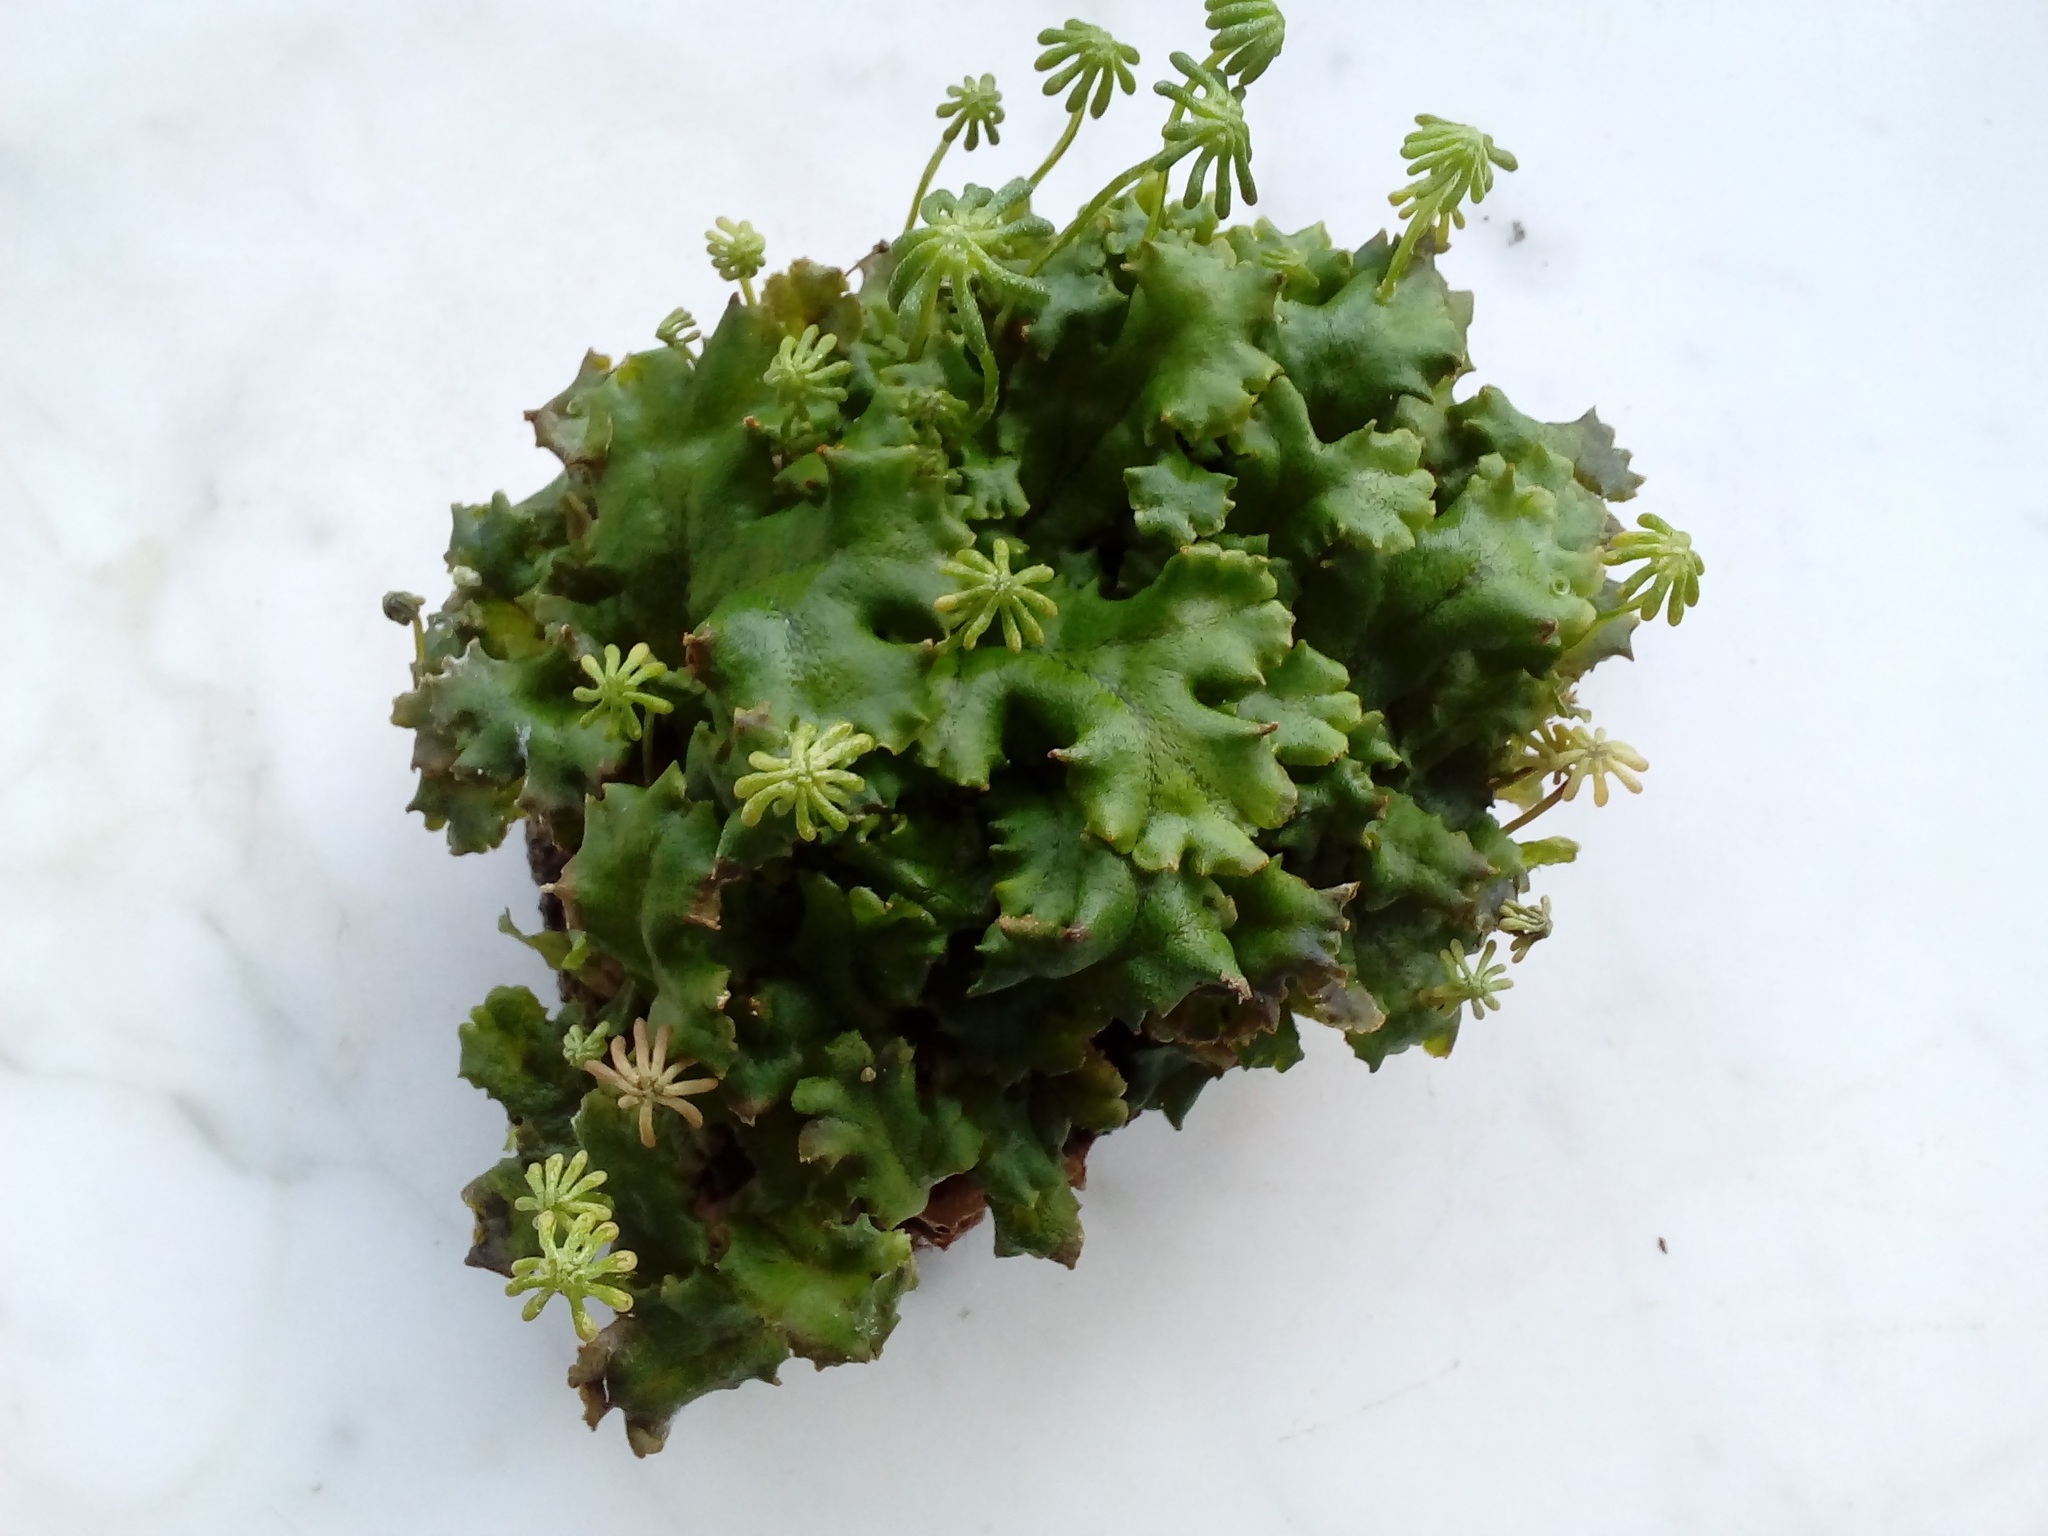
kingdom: Plantae
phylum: Marchantiophyta
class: Marchantiopsida
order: Marchantiales
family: Marchantiaceae
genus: Marchantia
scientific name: Marchantia polymorpha
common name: Common liverwort
